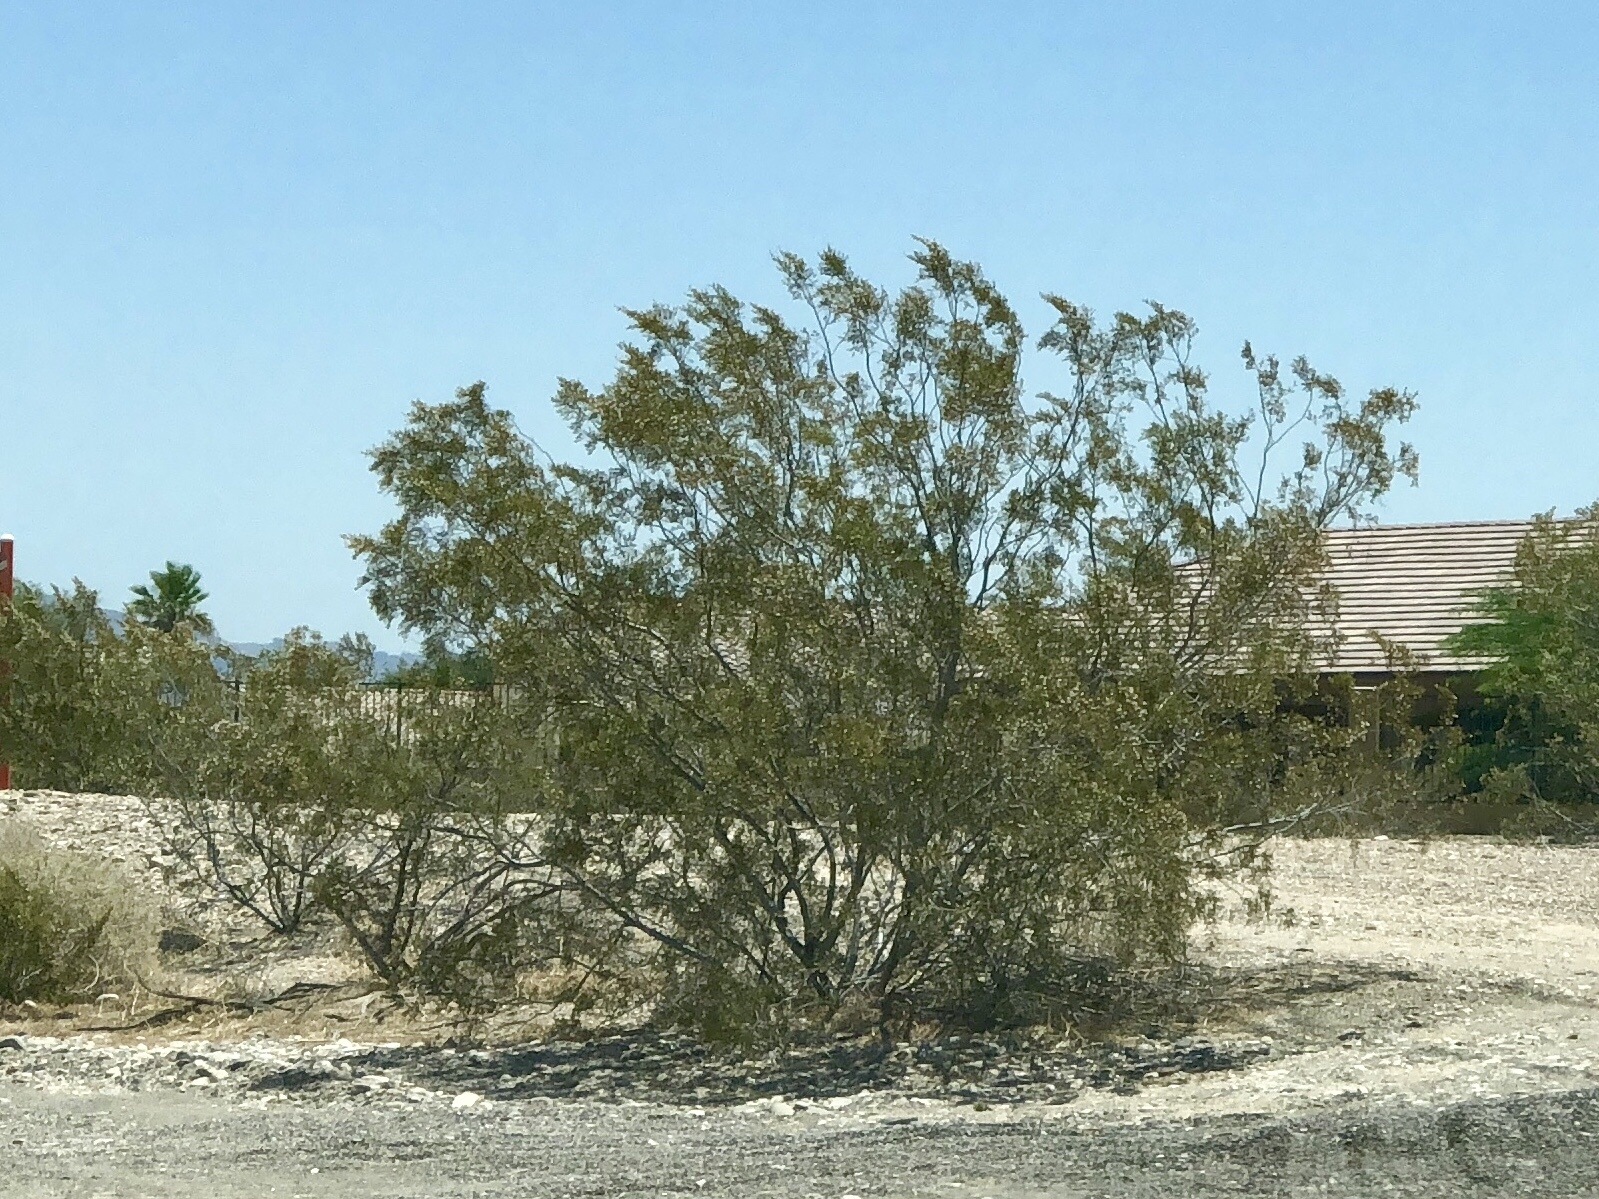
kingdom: Plantae
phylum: Tracheophyta
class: Magnoliopsida
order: Zygophyllales
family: Zygophyllaceae
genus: Larrea
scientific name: Larrea tridentata
